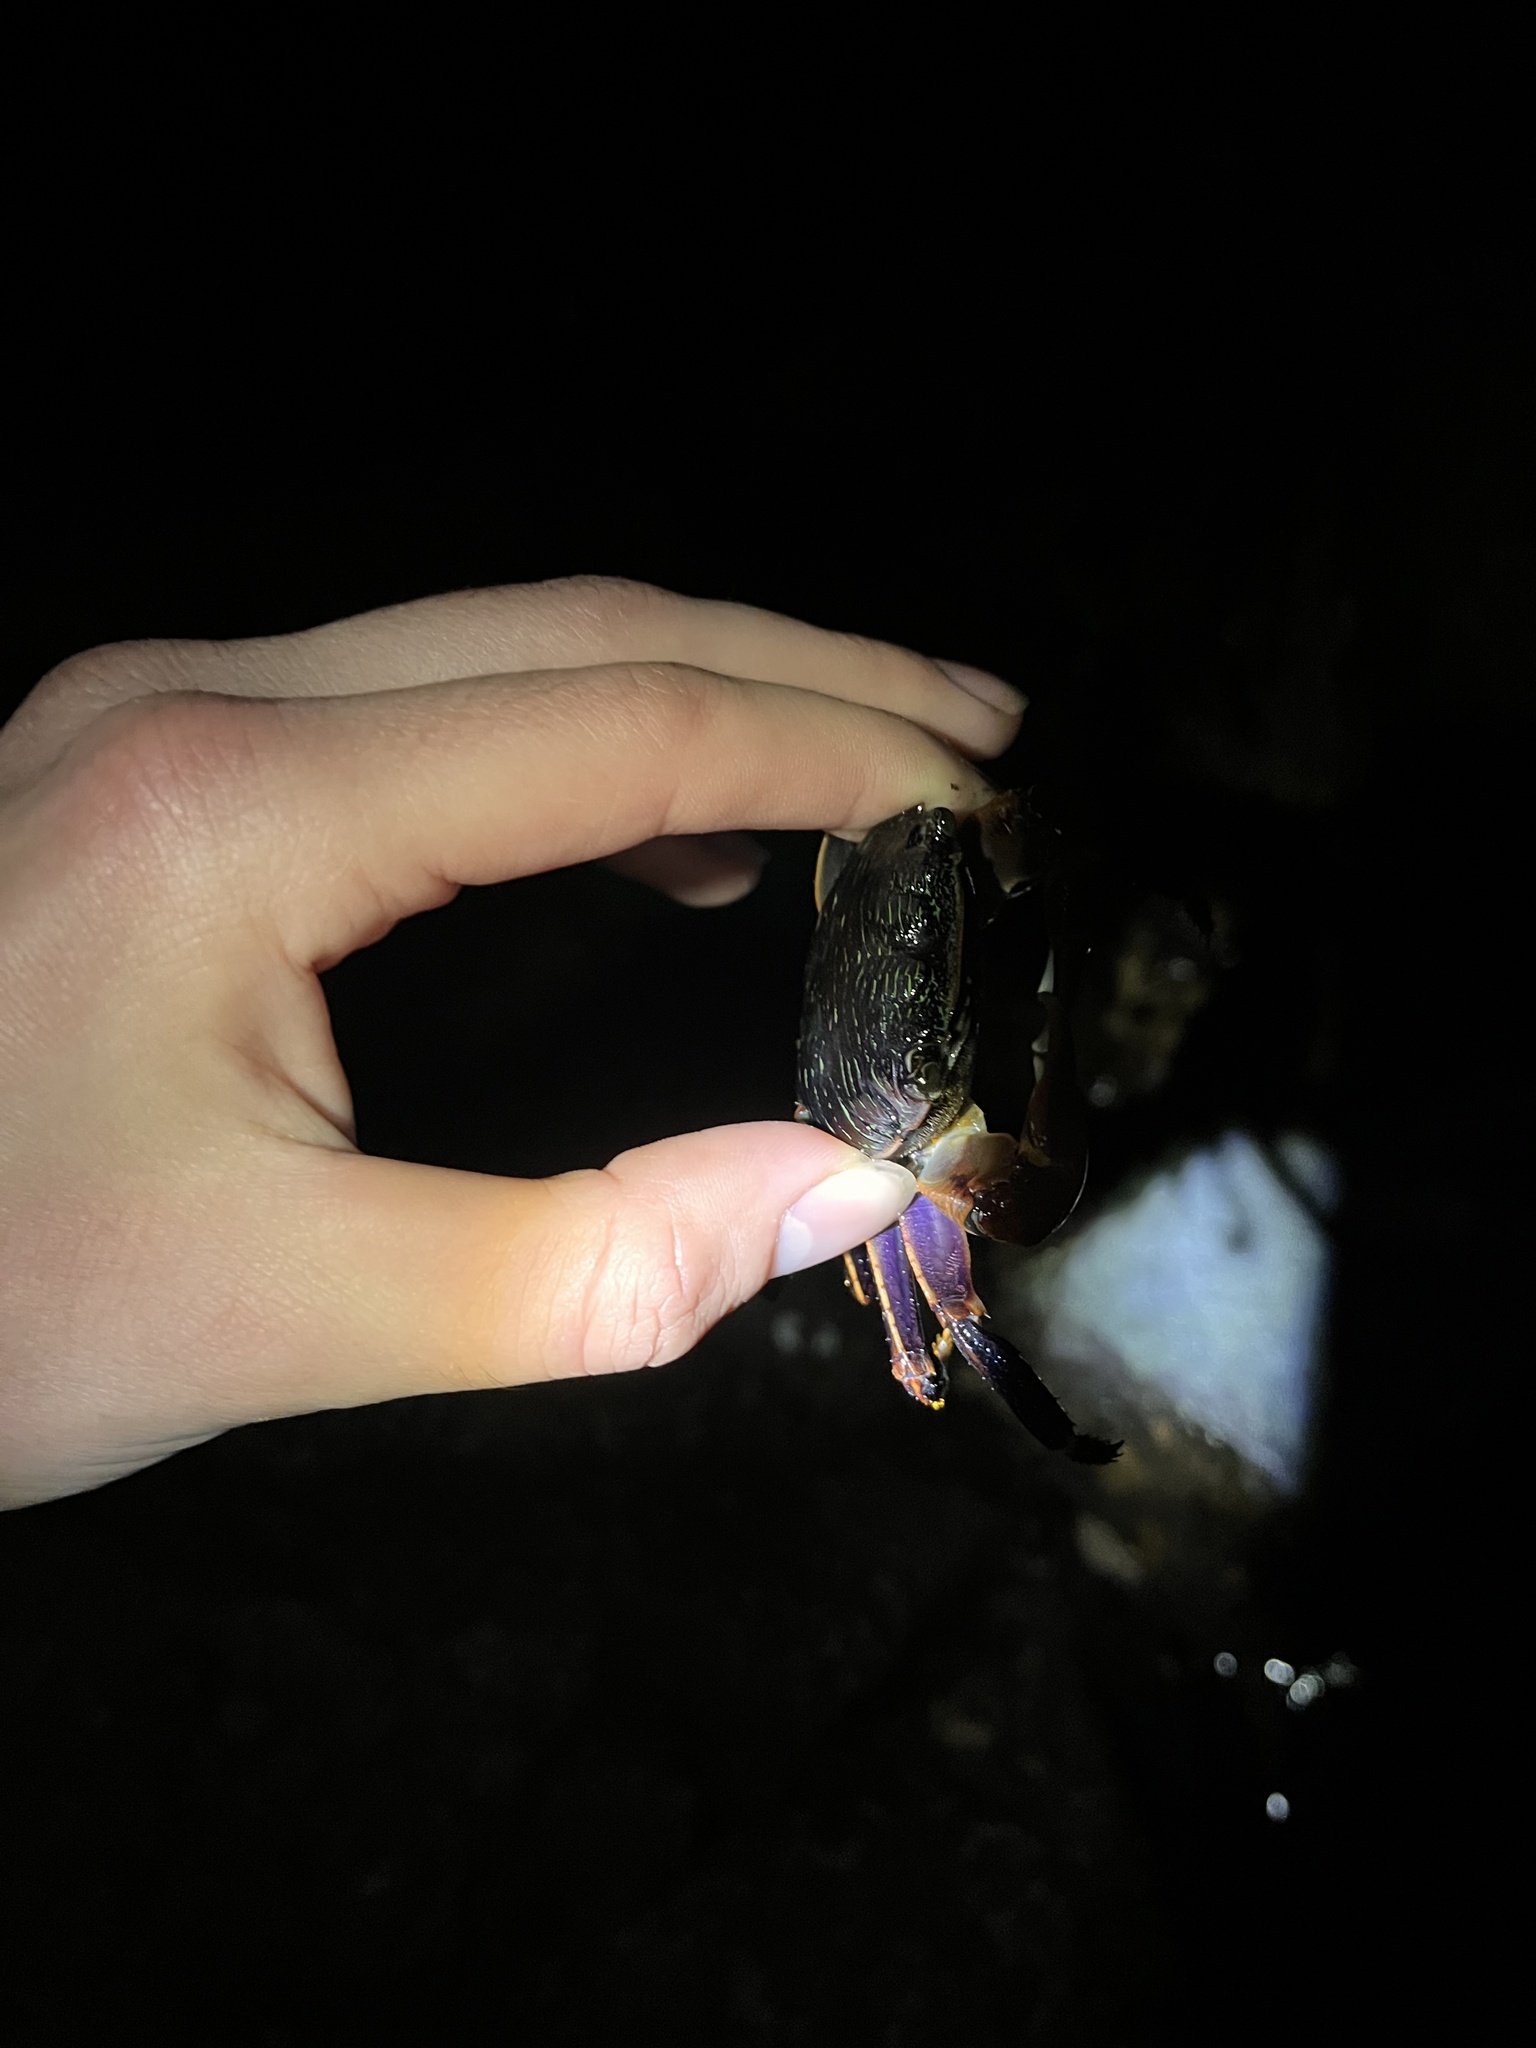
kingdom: Animalia
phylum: Arthropoda
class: Malacostraca
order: Decapoda
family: Grapsidae
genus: Pachygrapsus
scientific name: Pachygrapsus crassipes
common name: Striped shore crab
